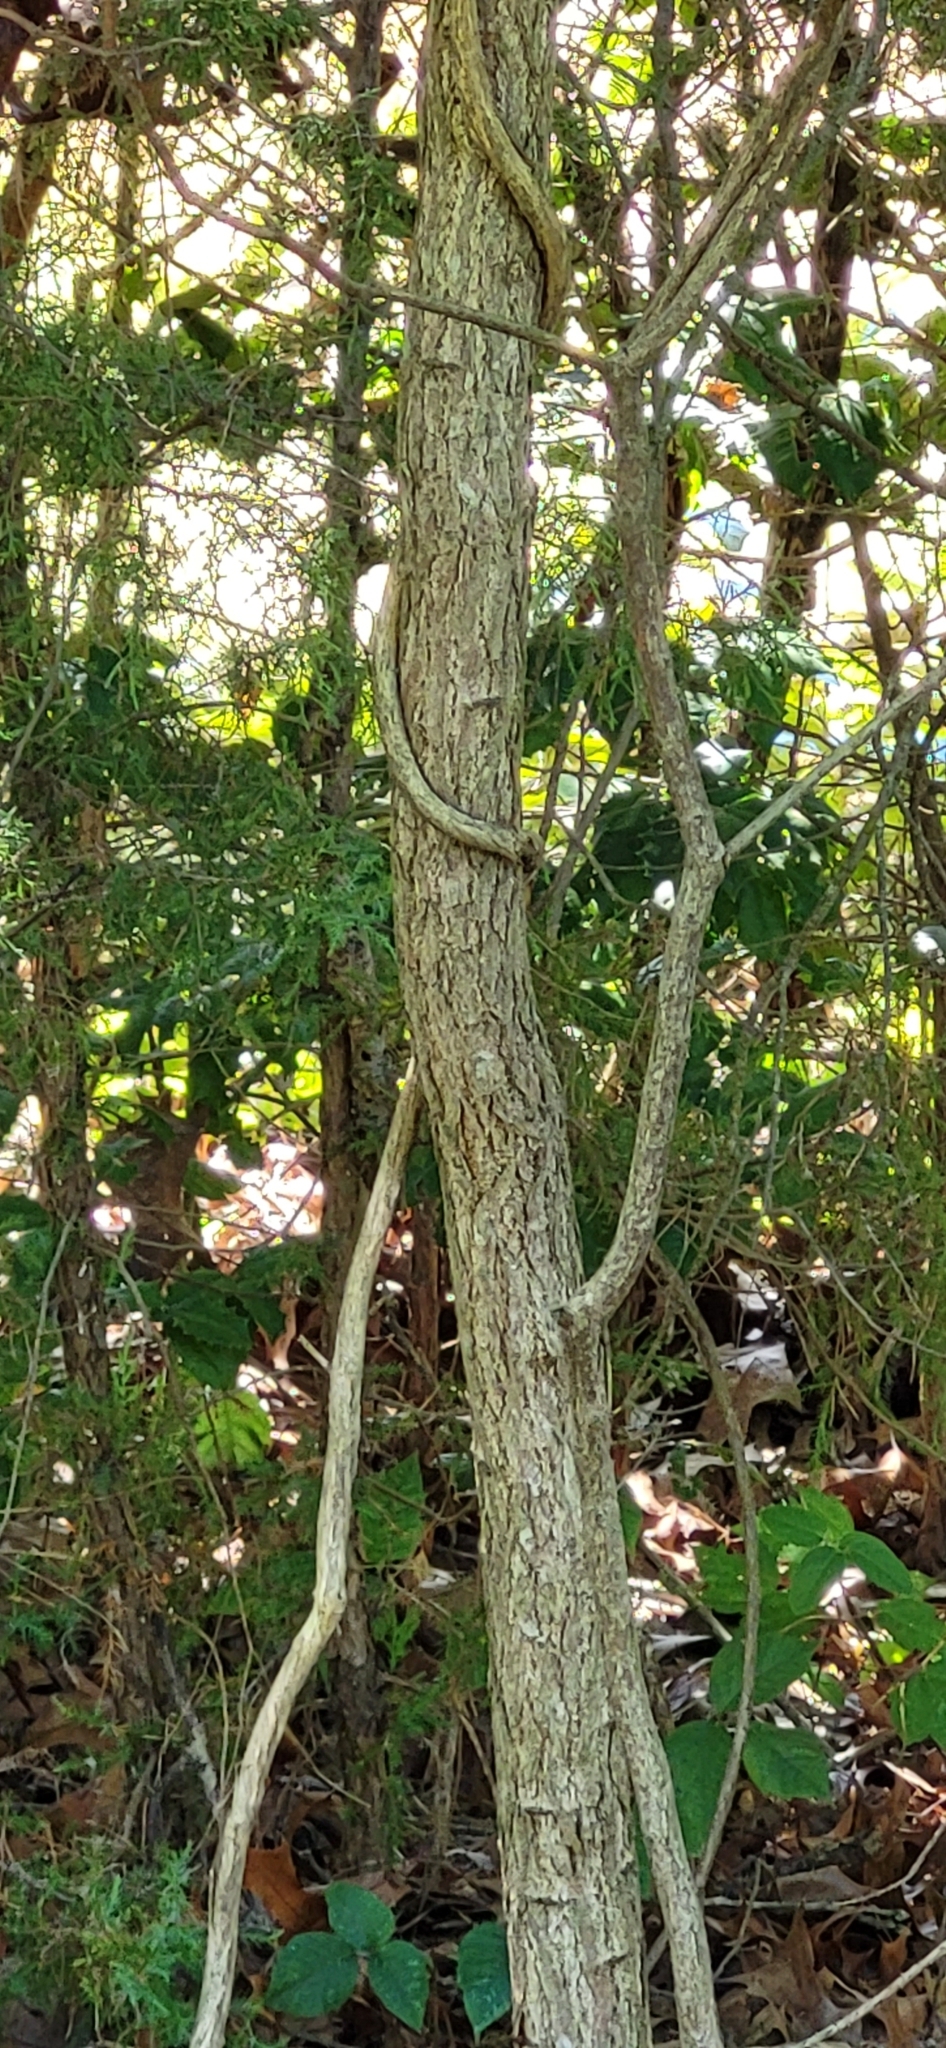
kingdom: Plantae
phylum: Tracheophyta
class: Magnoliopsida
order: Laurales
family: Lauraceae
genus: Sassafras
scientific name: Sassafras albidum
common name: Sassafras
